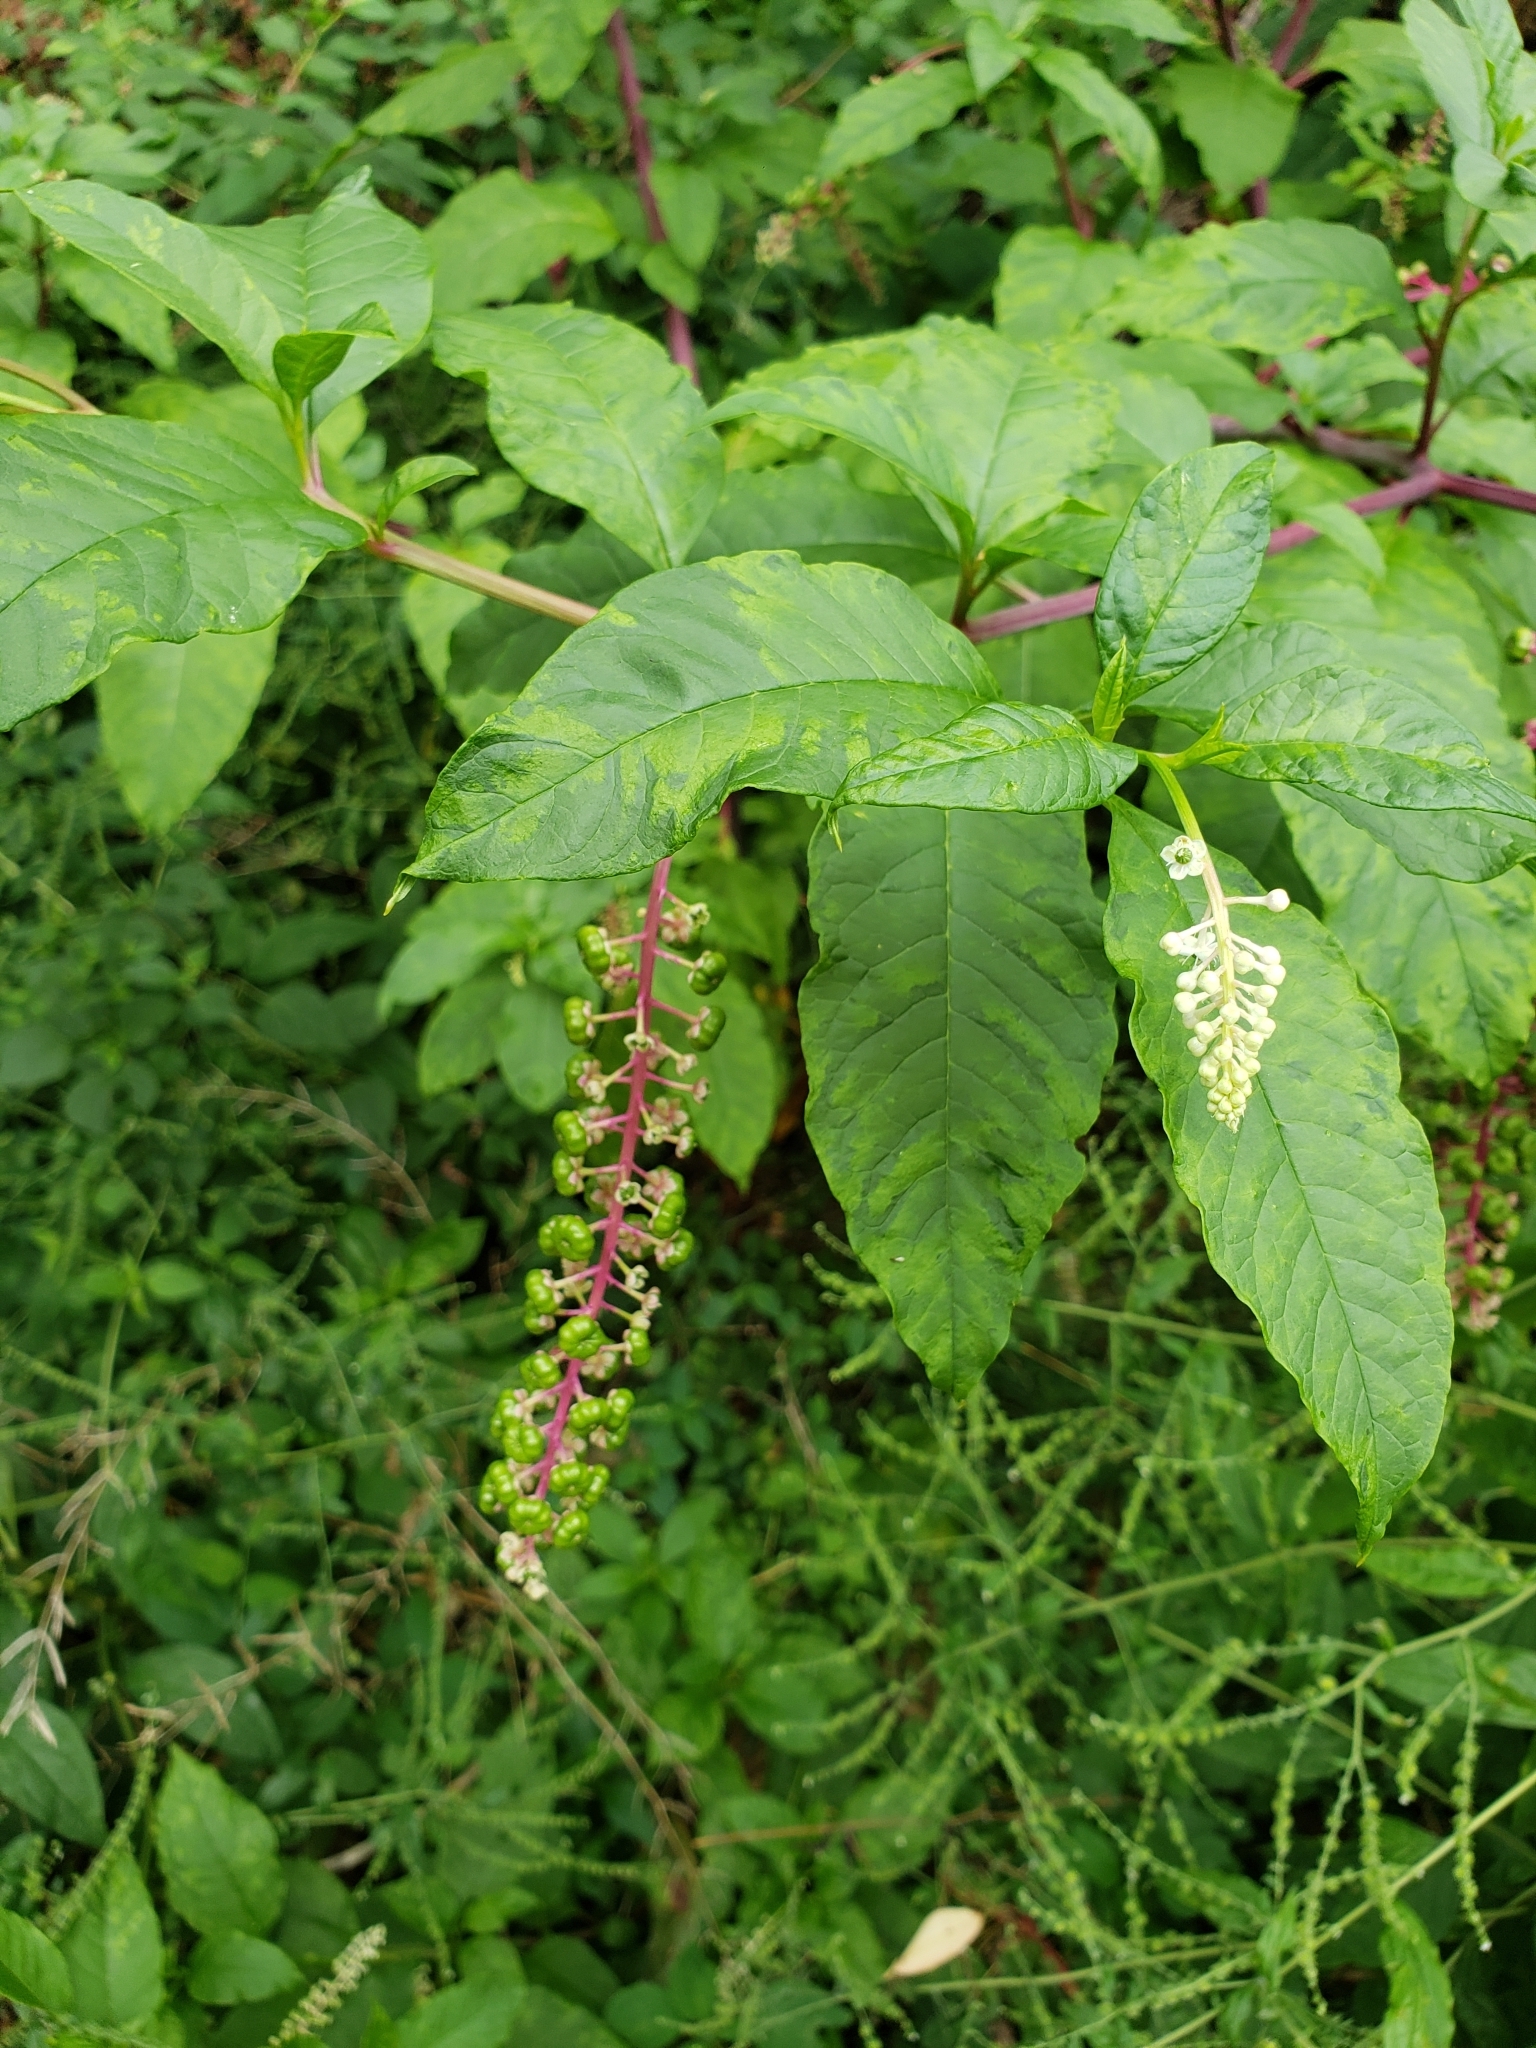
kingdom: Plantae
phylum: Tracheophyta
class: Magnoliopsida
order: Caryophyllales
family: Phytolaccaceae
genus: Phytolacca
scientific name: Phytolacca americana
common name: American pokeweed
